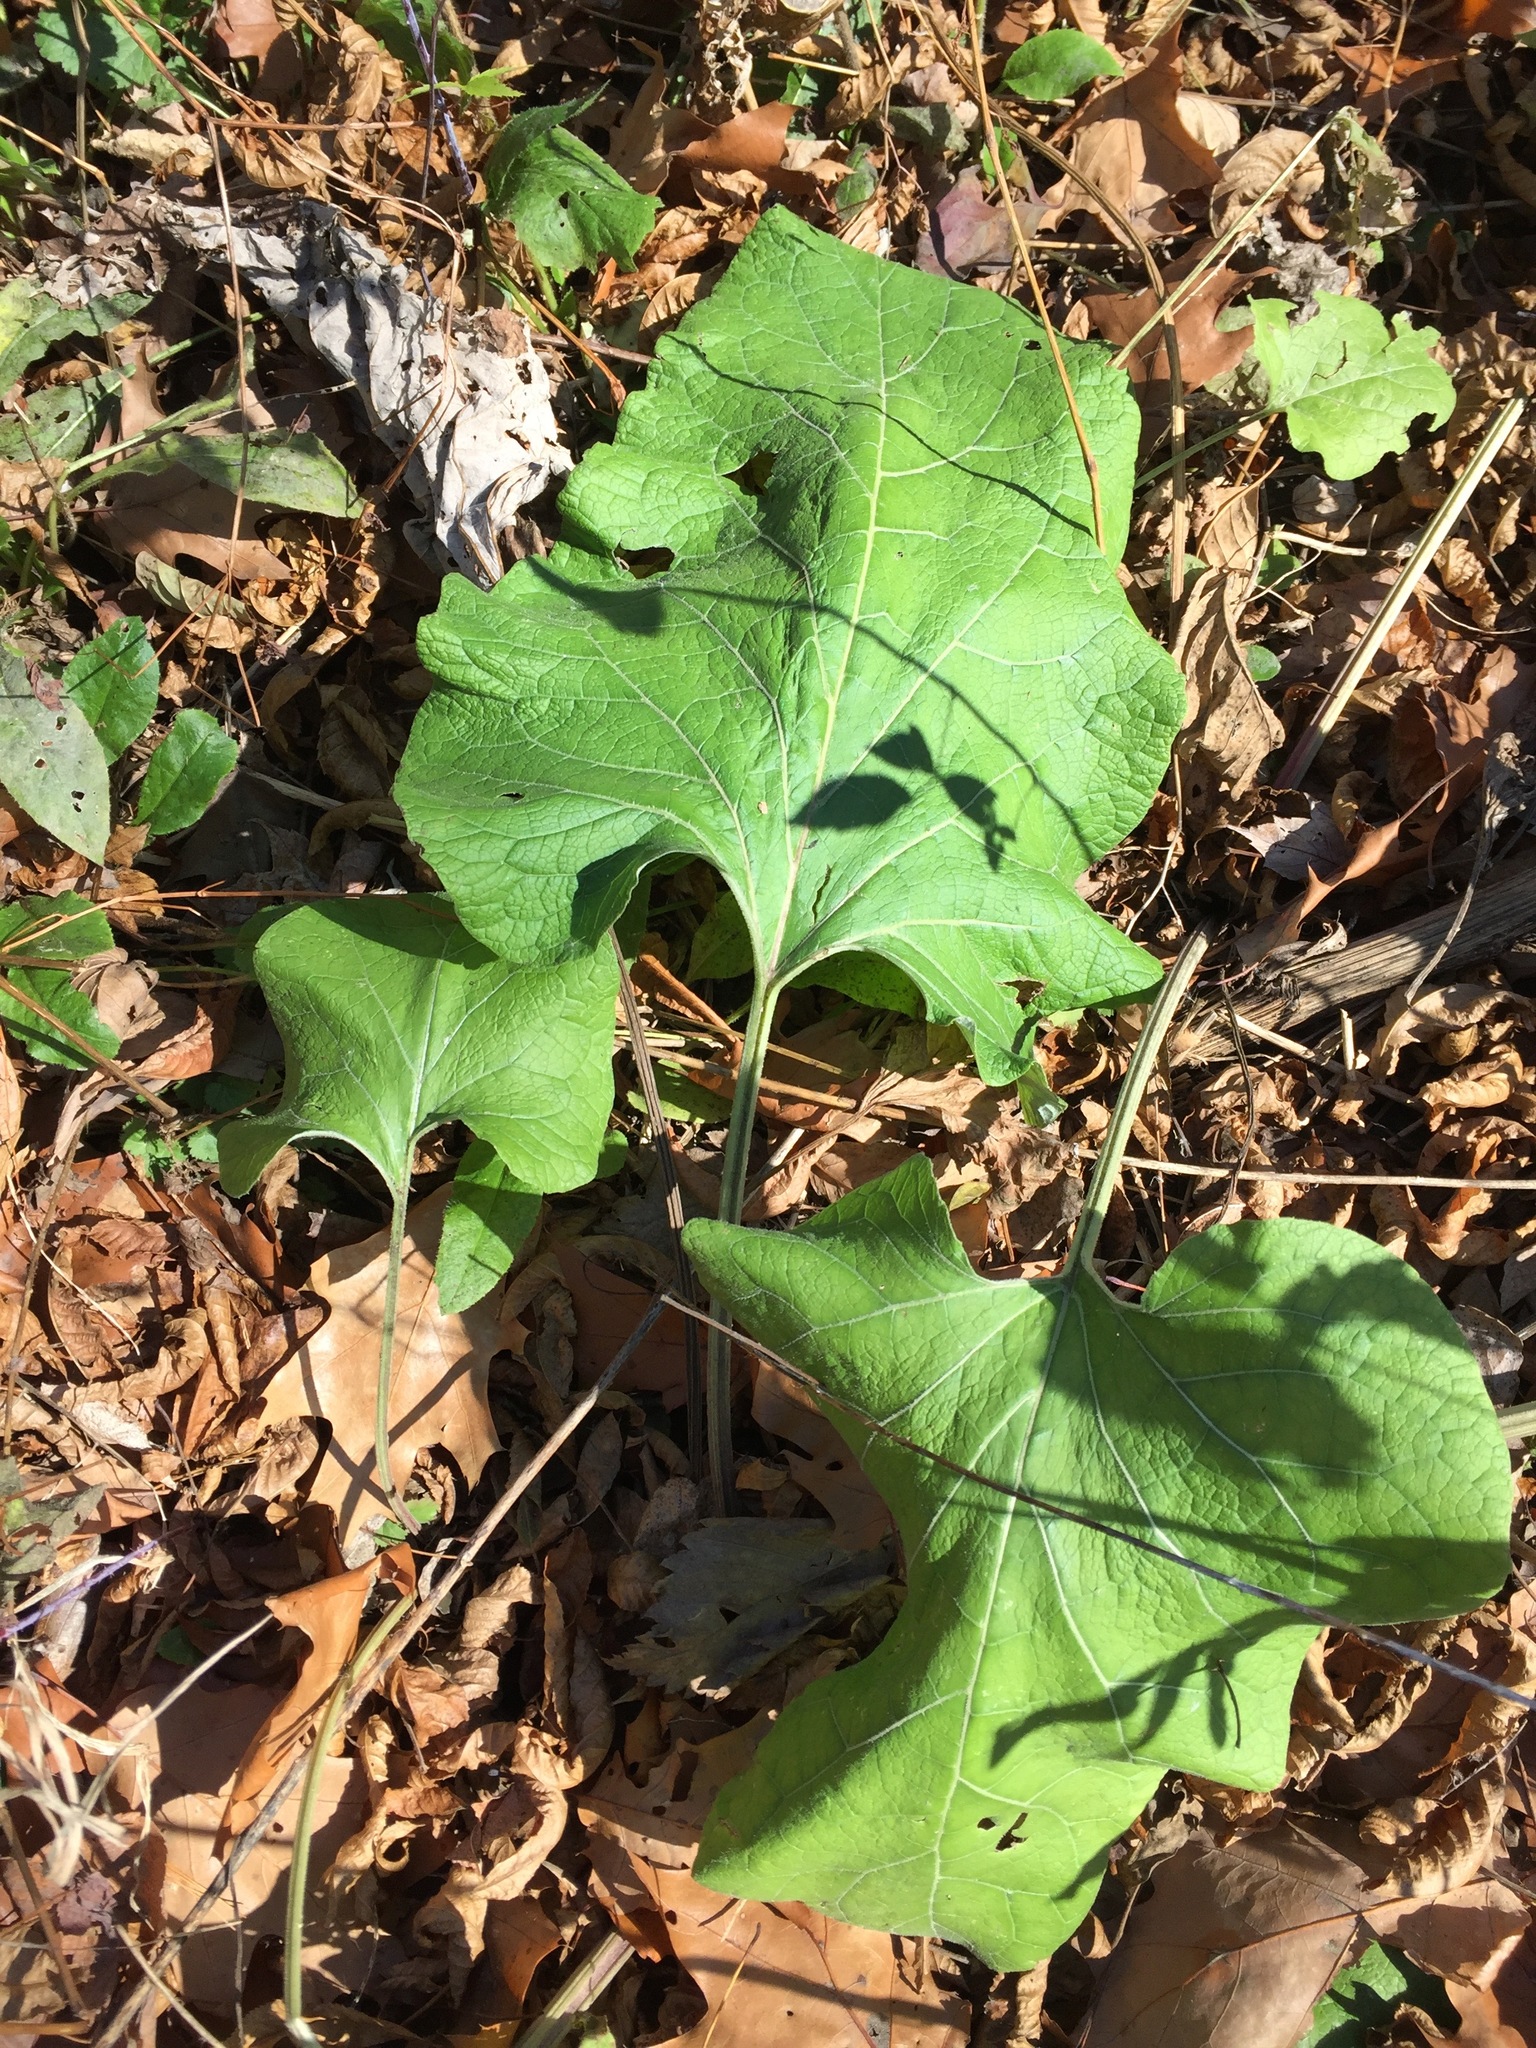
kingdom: Plantae
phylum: Tracheophyta
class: Magnoliopsida
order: Asterales
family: Asteraceae
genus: Arctium
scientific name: Arctium
